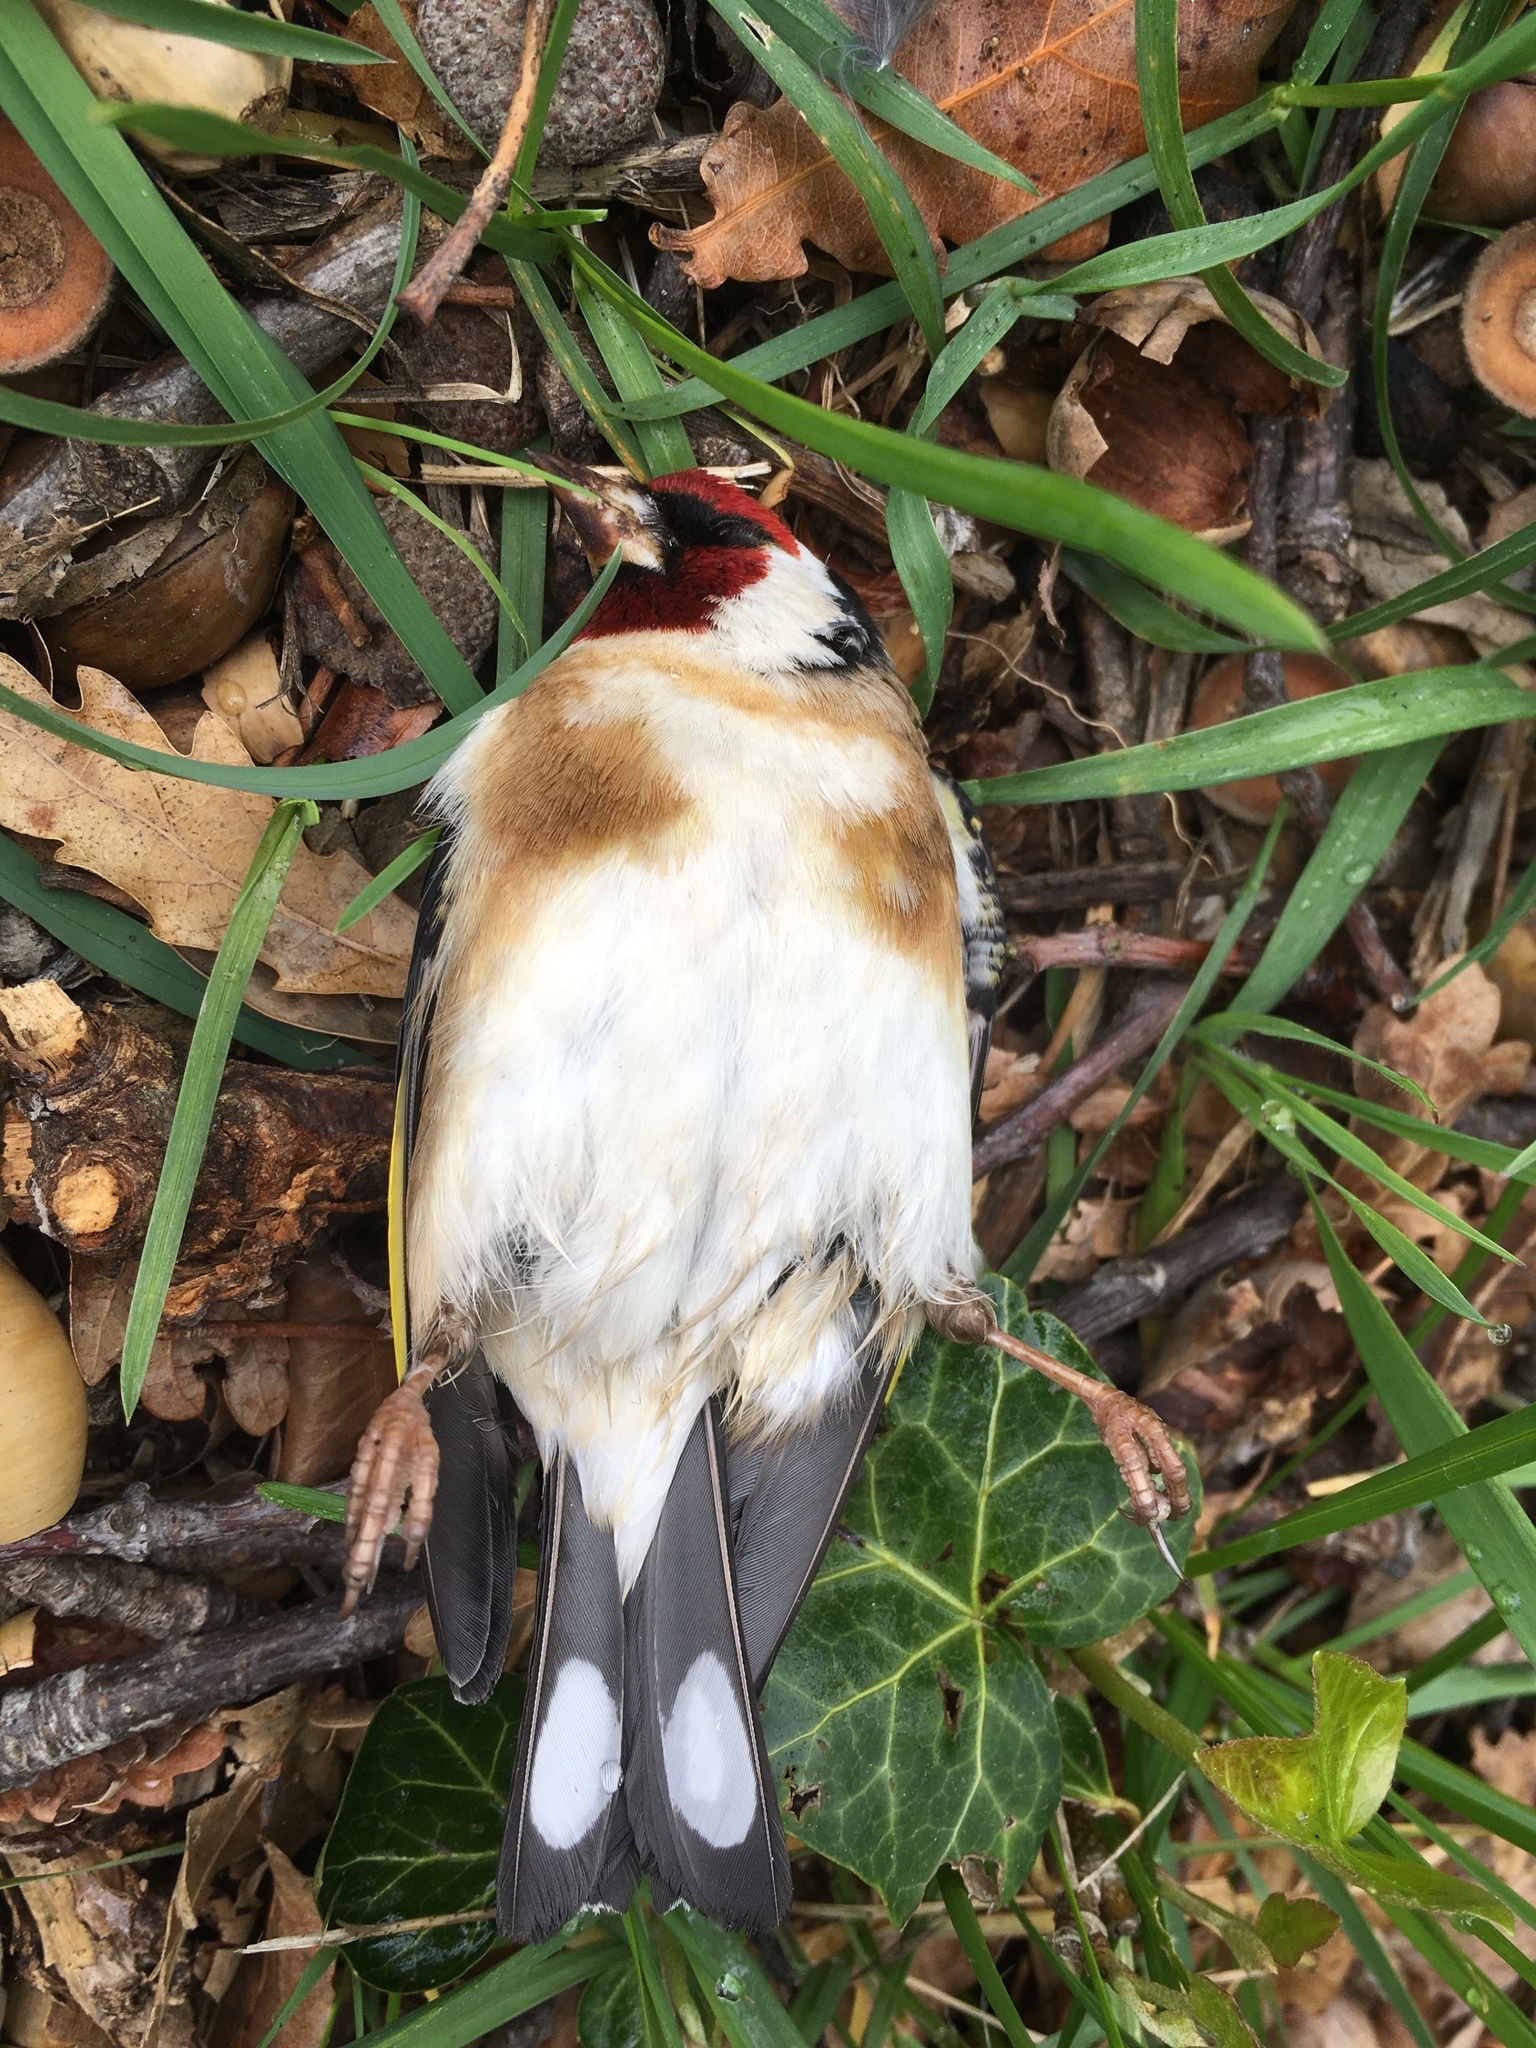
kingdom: Animalia
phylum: Chordata
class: Aves
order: Passeriformes
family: Fringillidae
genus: Carduelis
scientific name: Carduelis carduelis
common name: European goldfinch
